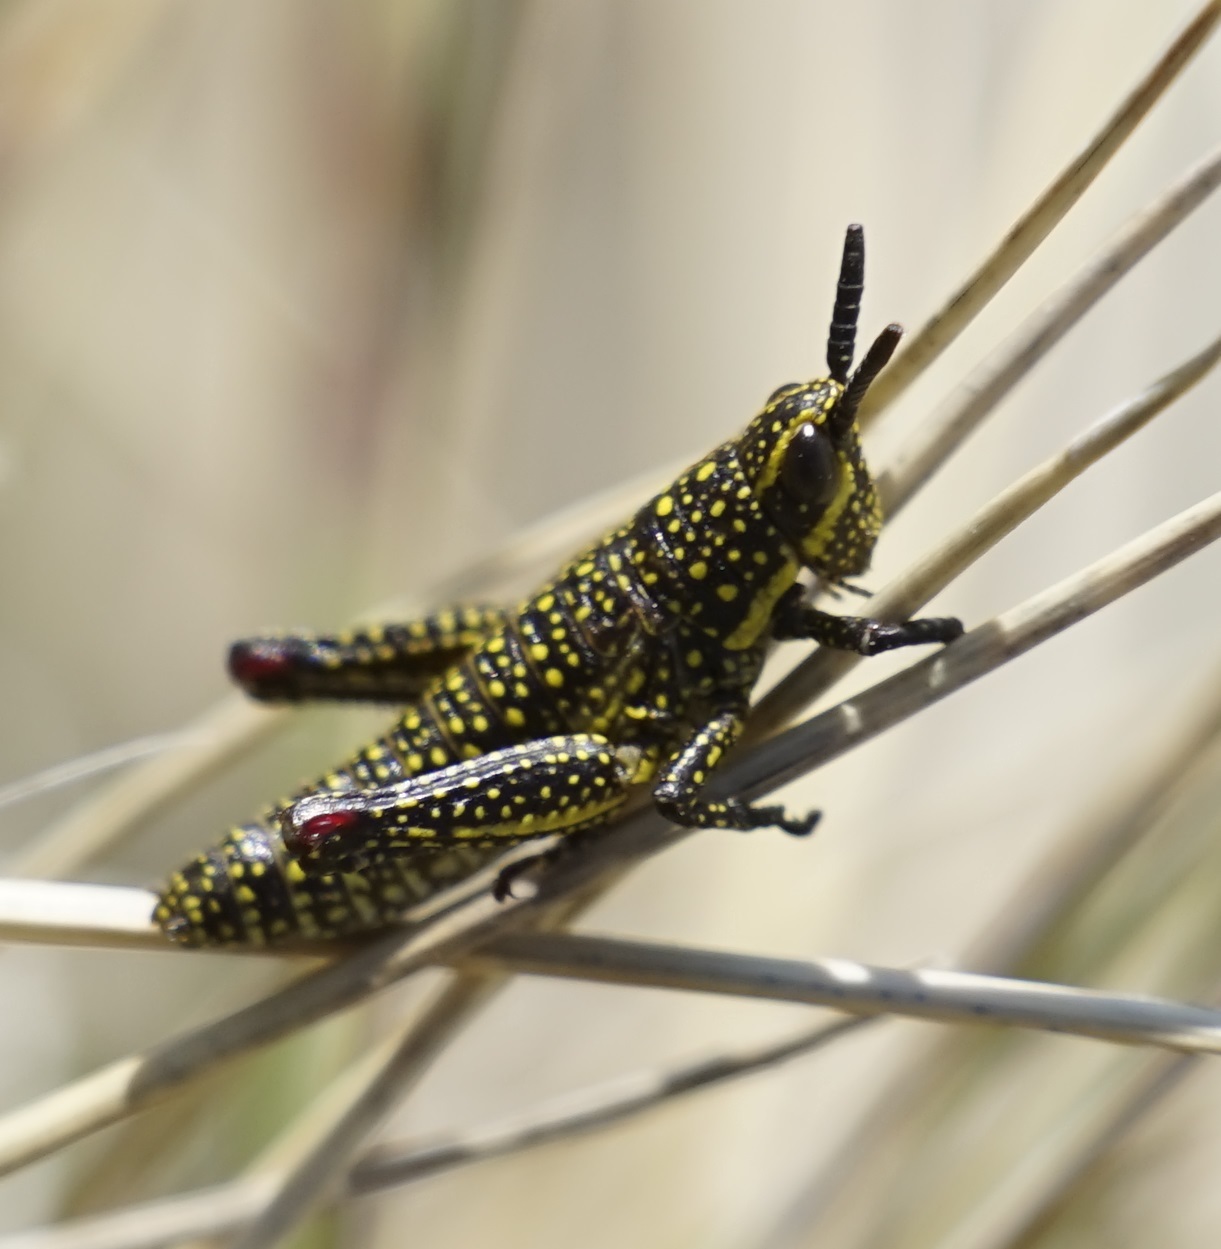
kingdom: Animalia
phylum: Arthropoda
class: Insecta
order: Orthoptera
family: Pyrgomorphidae
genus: Monistria
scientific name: Monistria concinna
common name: Southern pyrgomorph
